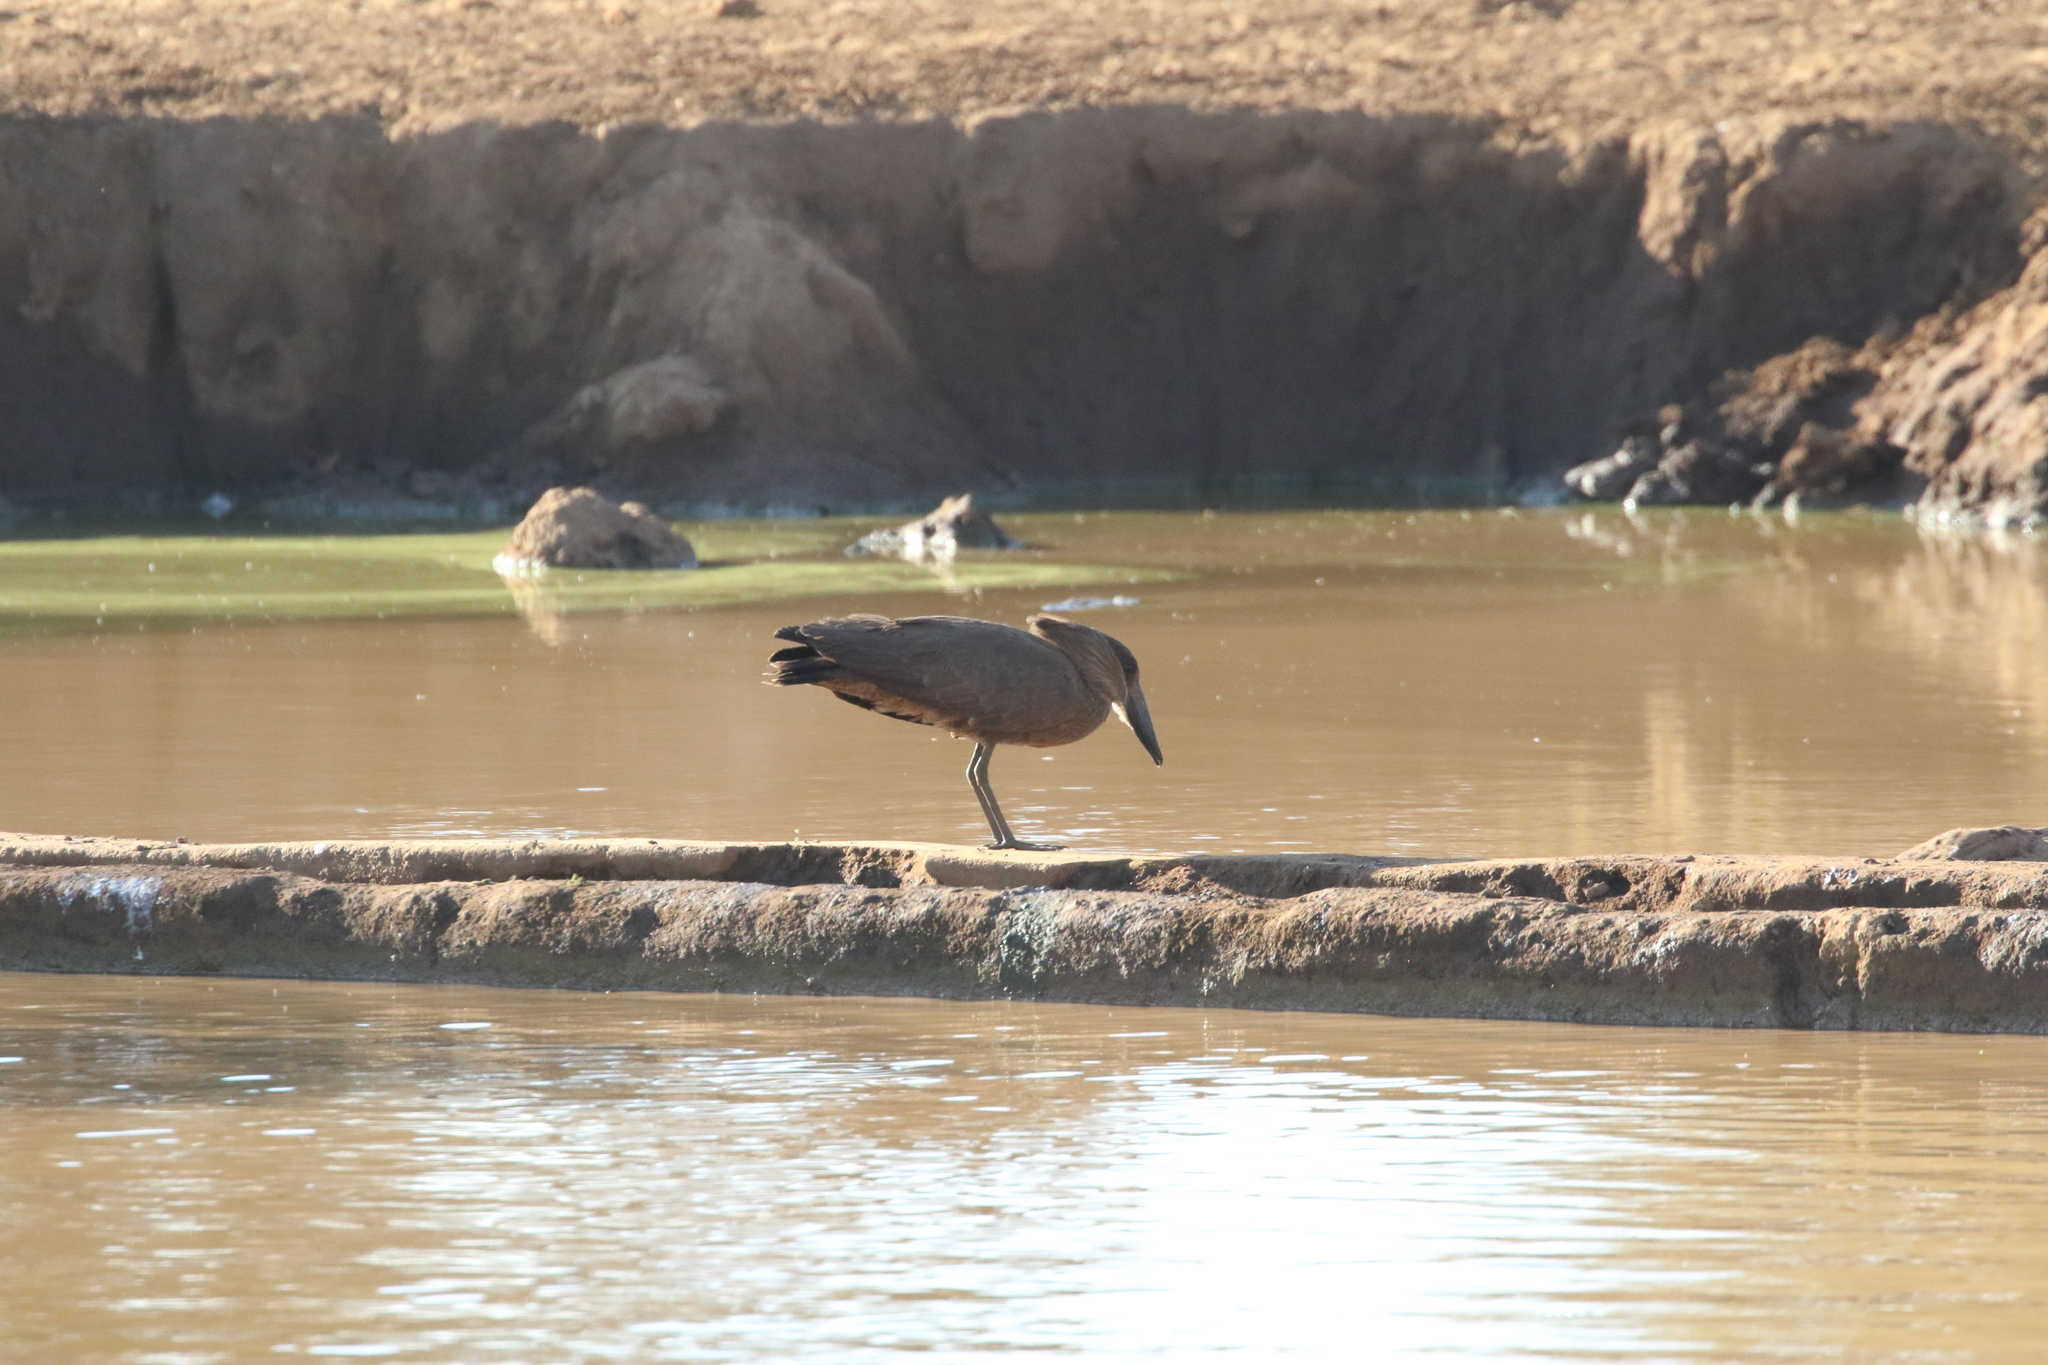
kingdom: Animalia
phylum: Chordata
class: Aves
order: Pelecaniformes
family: Scopidae
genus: Scopus
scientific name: Scopus umbretta
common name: Hamerkop
